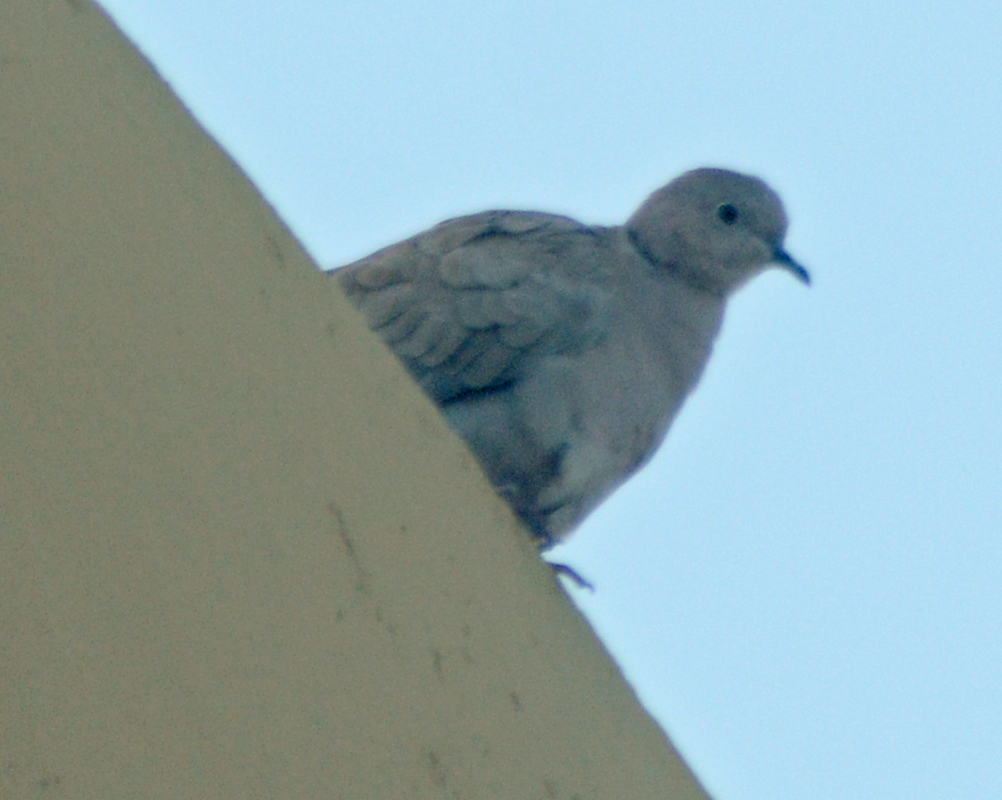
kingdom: Animalia
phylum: Chordata
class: Aves
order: Columbiformes
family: Columbidae
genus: Streptopelia
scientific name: Streptopelia decaocto
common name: Eurasian collared dove
